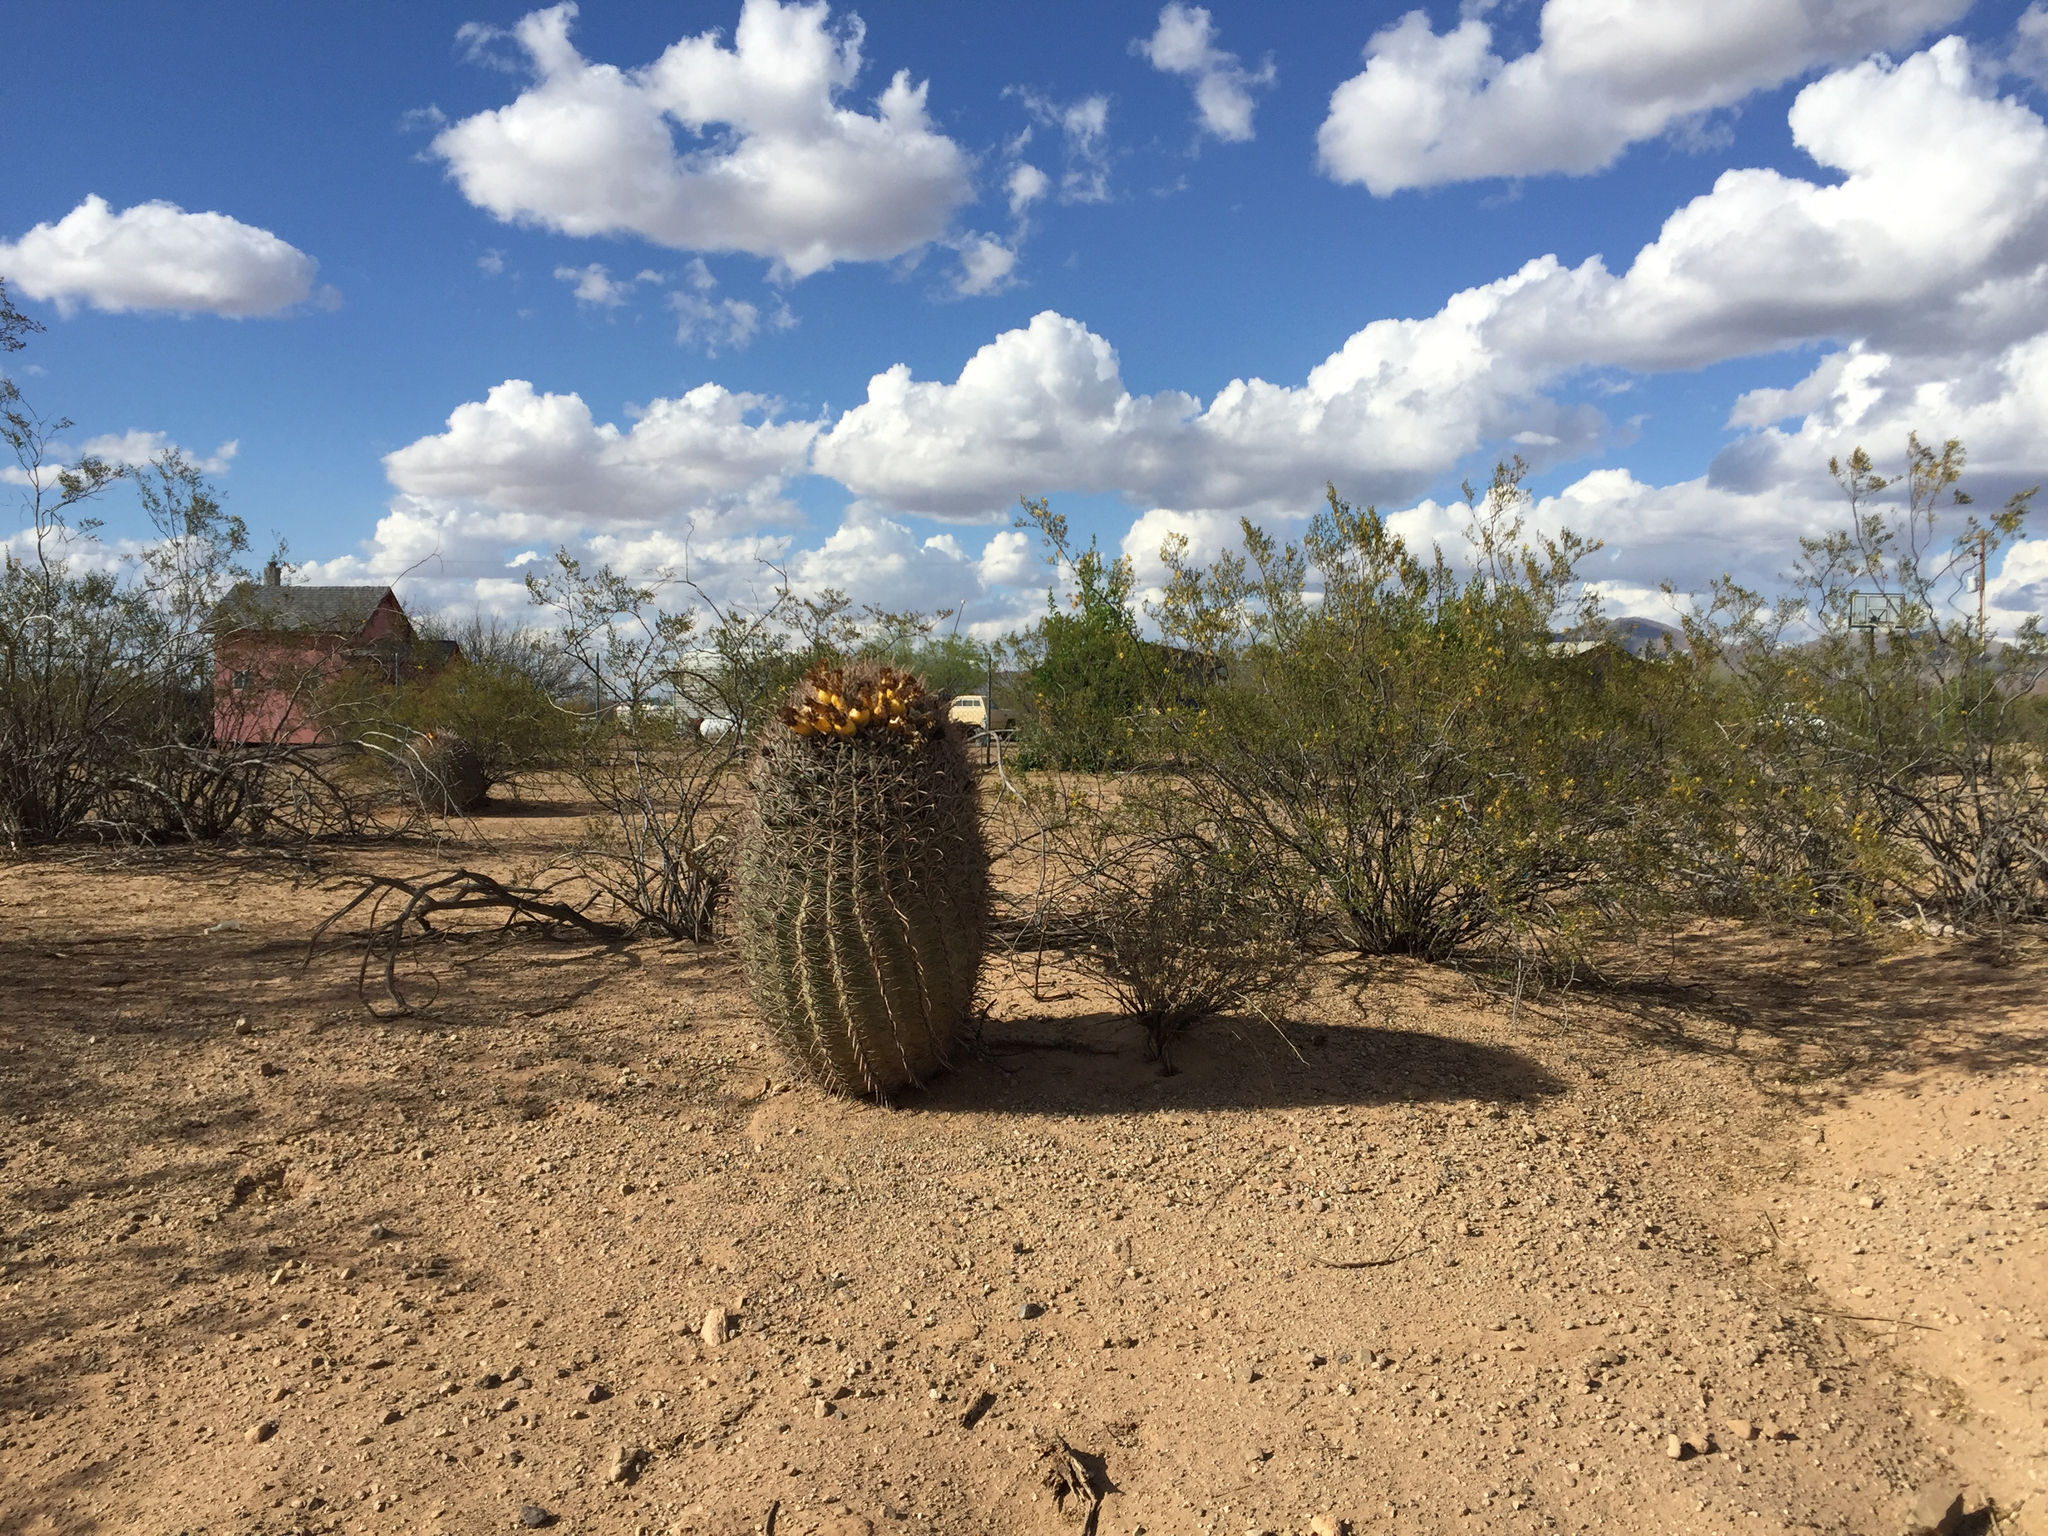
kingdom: Plantae
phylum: Tracheophyta
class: Magnoliopsida
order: Caryophyllales
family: Cactaceae
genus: Ferocactus
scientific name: Ferocactus wislizeni
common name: Candy barrel cactus
